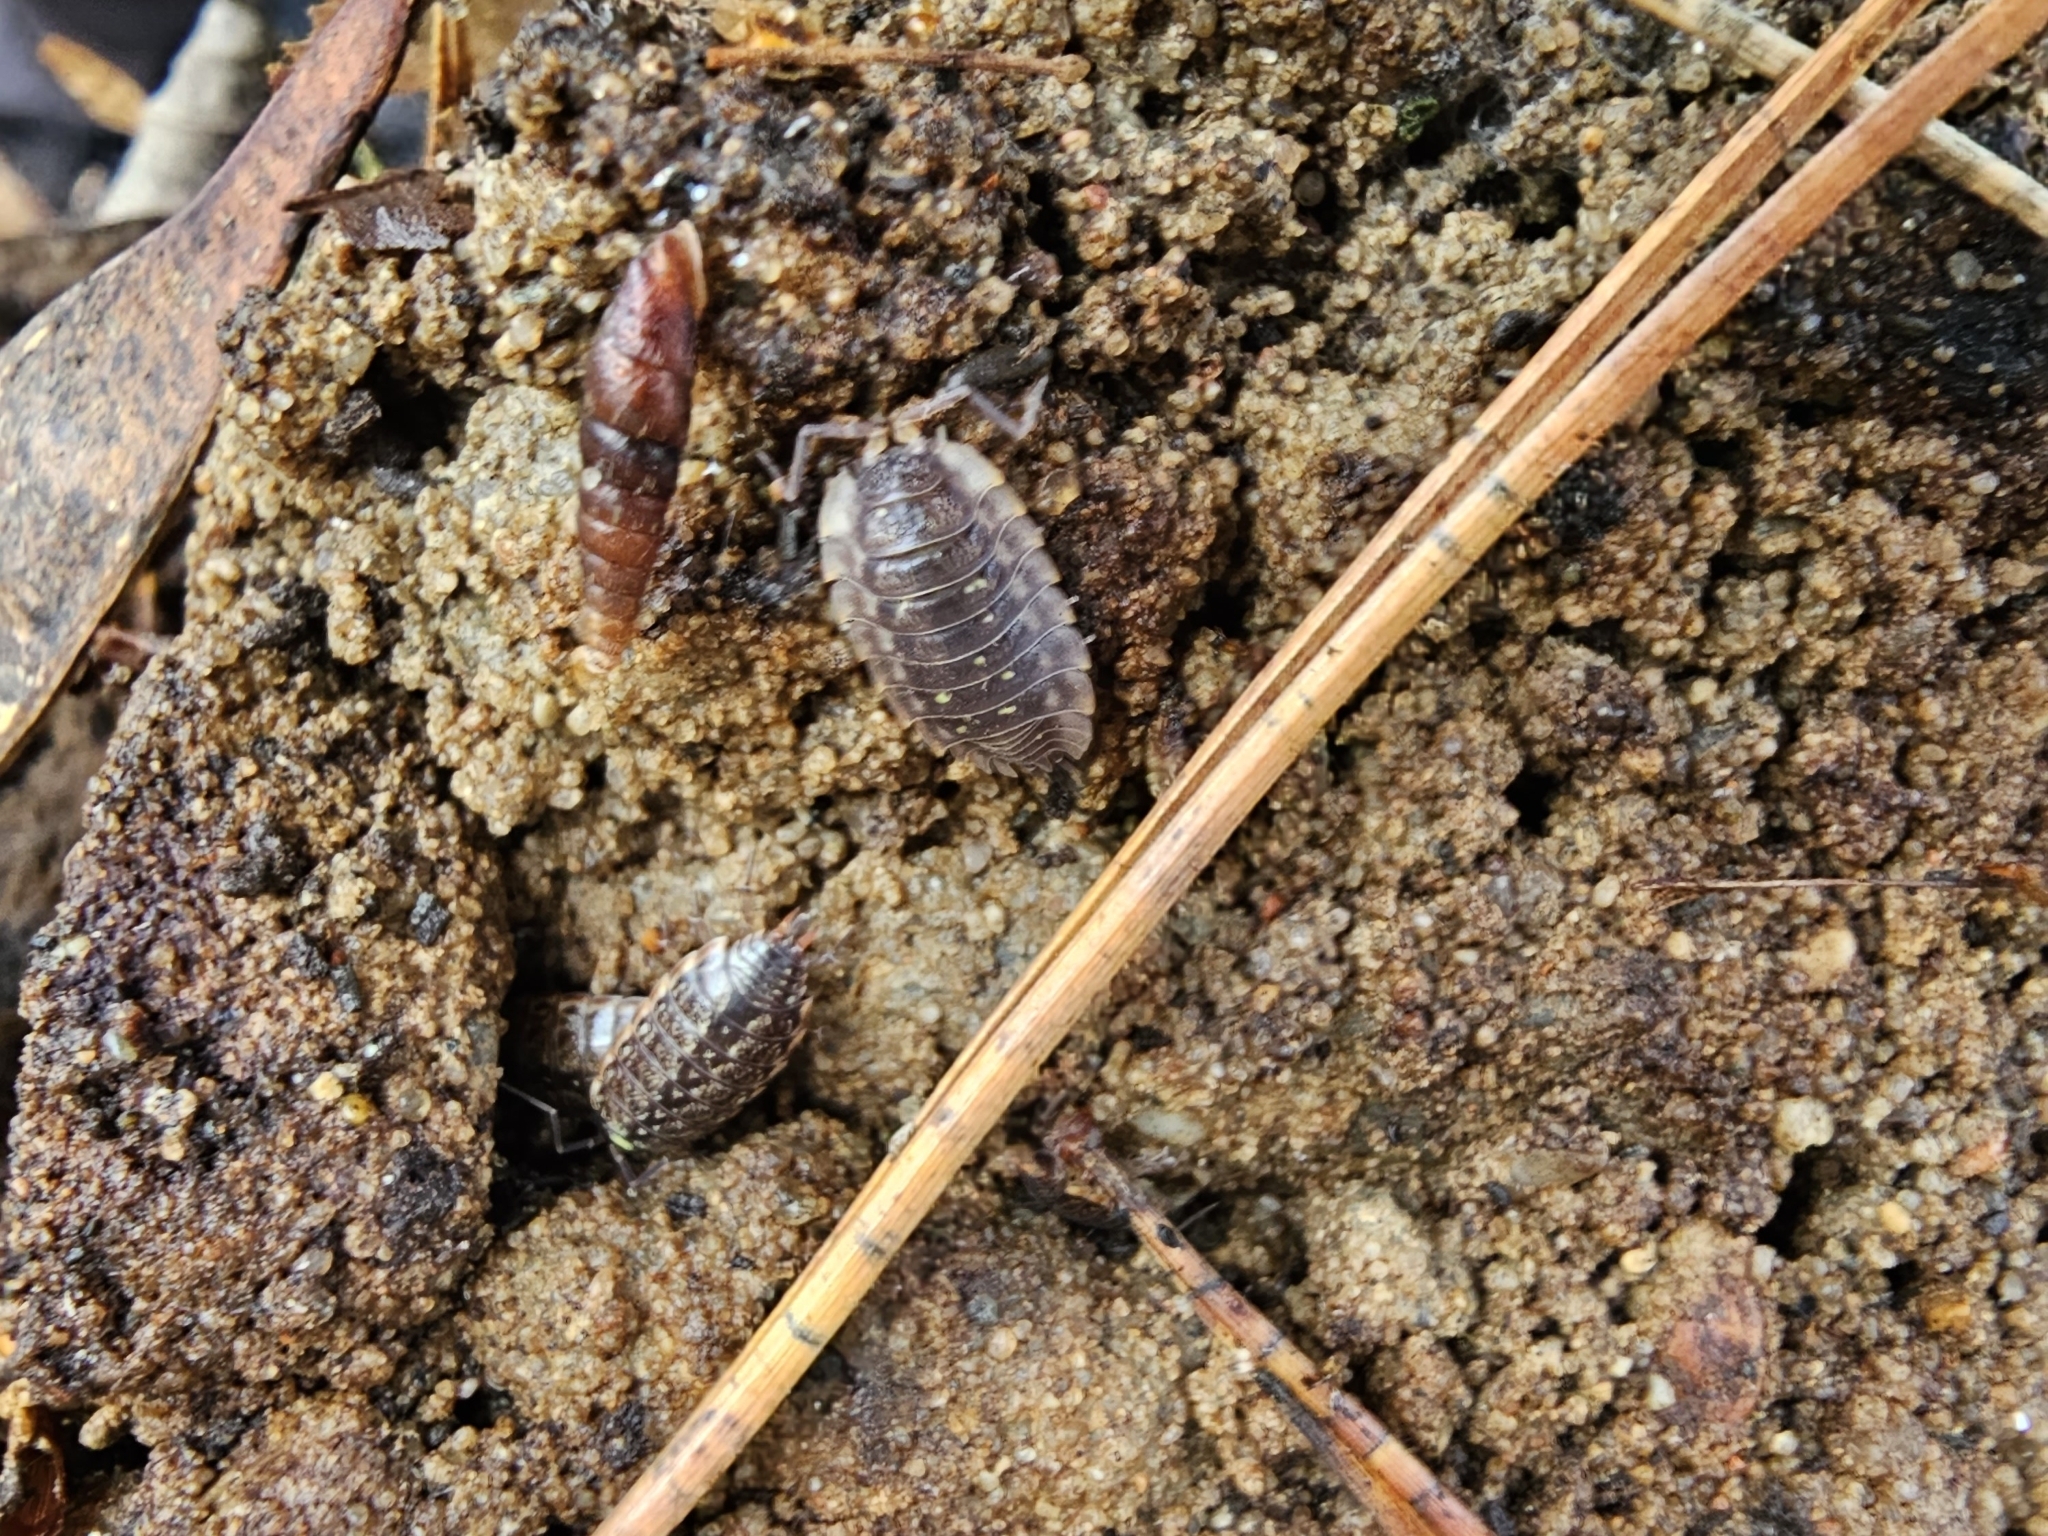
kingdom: Animalia
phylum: Arthropoda
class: Malacostraca
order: Isopoda
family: Philosciidae
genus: Philoscia
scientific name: Philoscia muscorum
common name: Common striped woodlouse
